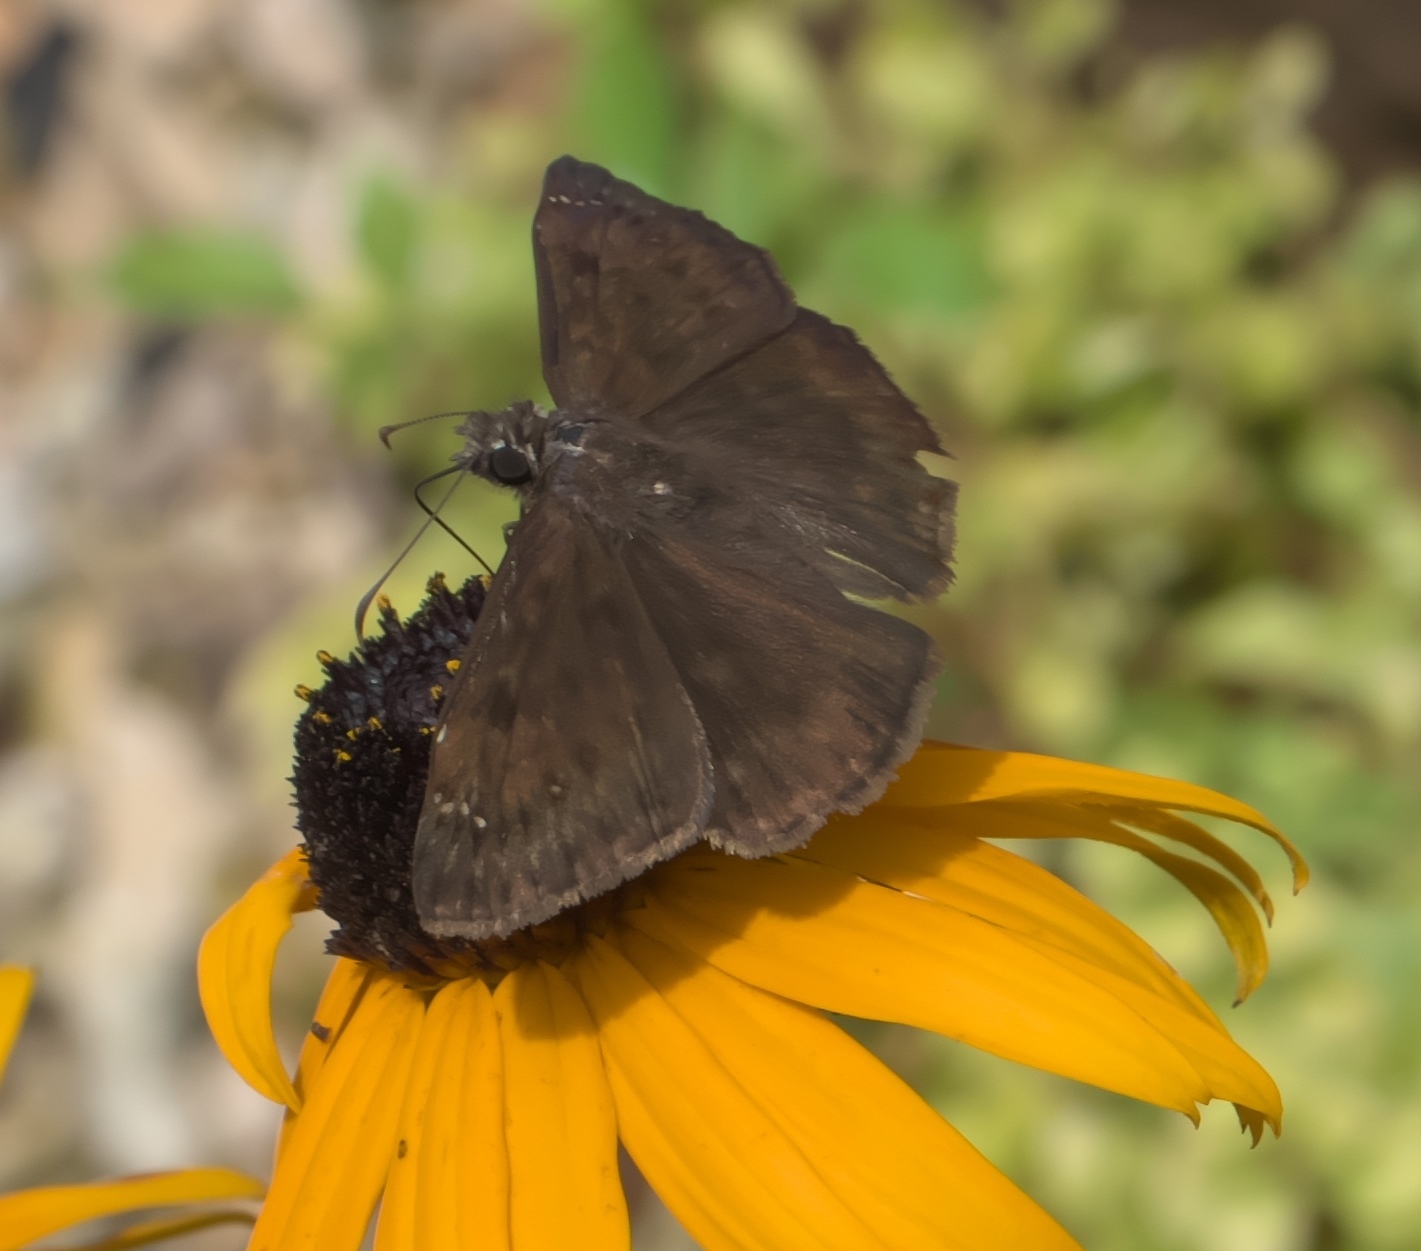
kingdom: Animalia
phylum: Arthropoda
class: Insecta
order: Lepidoptera
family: Hesperiidae
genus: Erynnis
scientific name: Erynnis horatius
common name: Horace's duskywing
